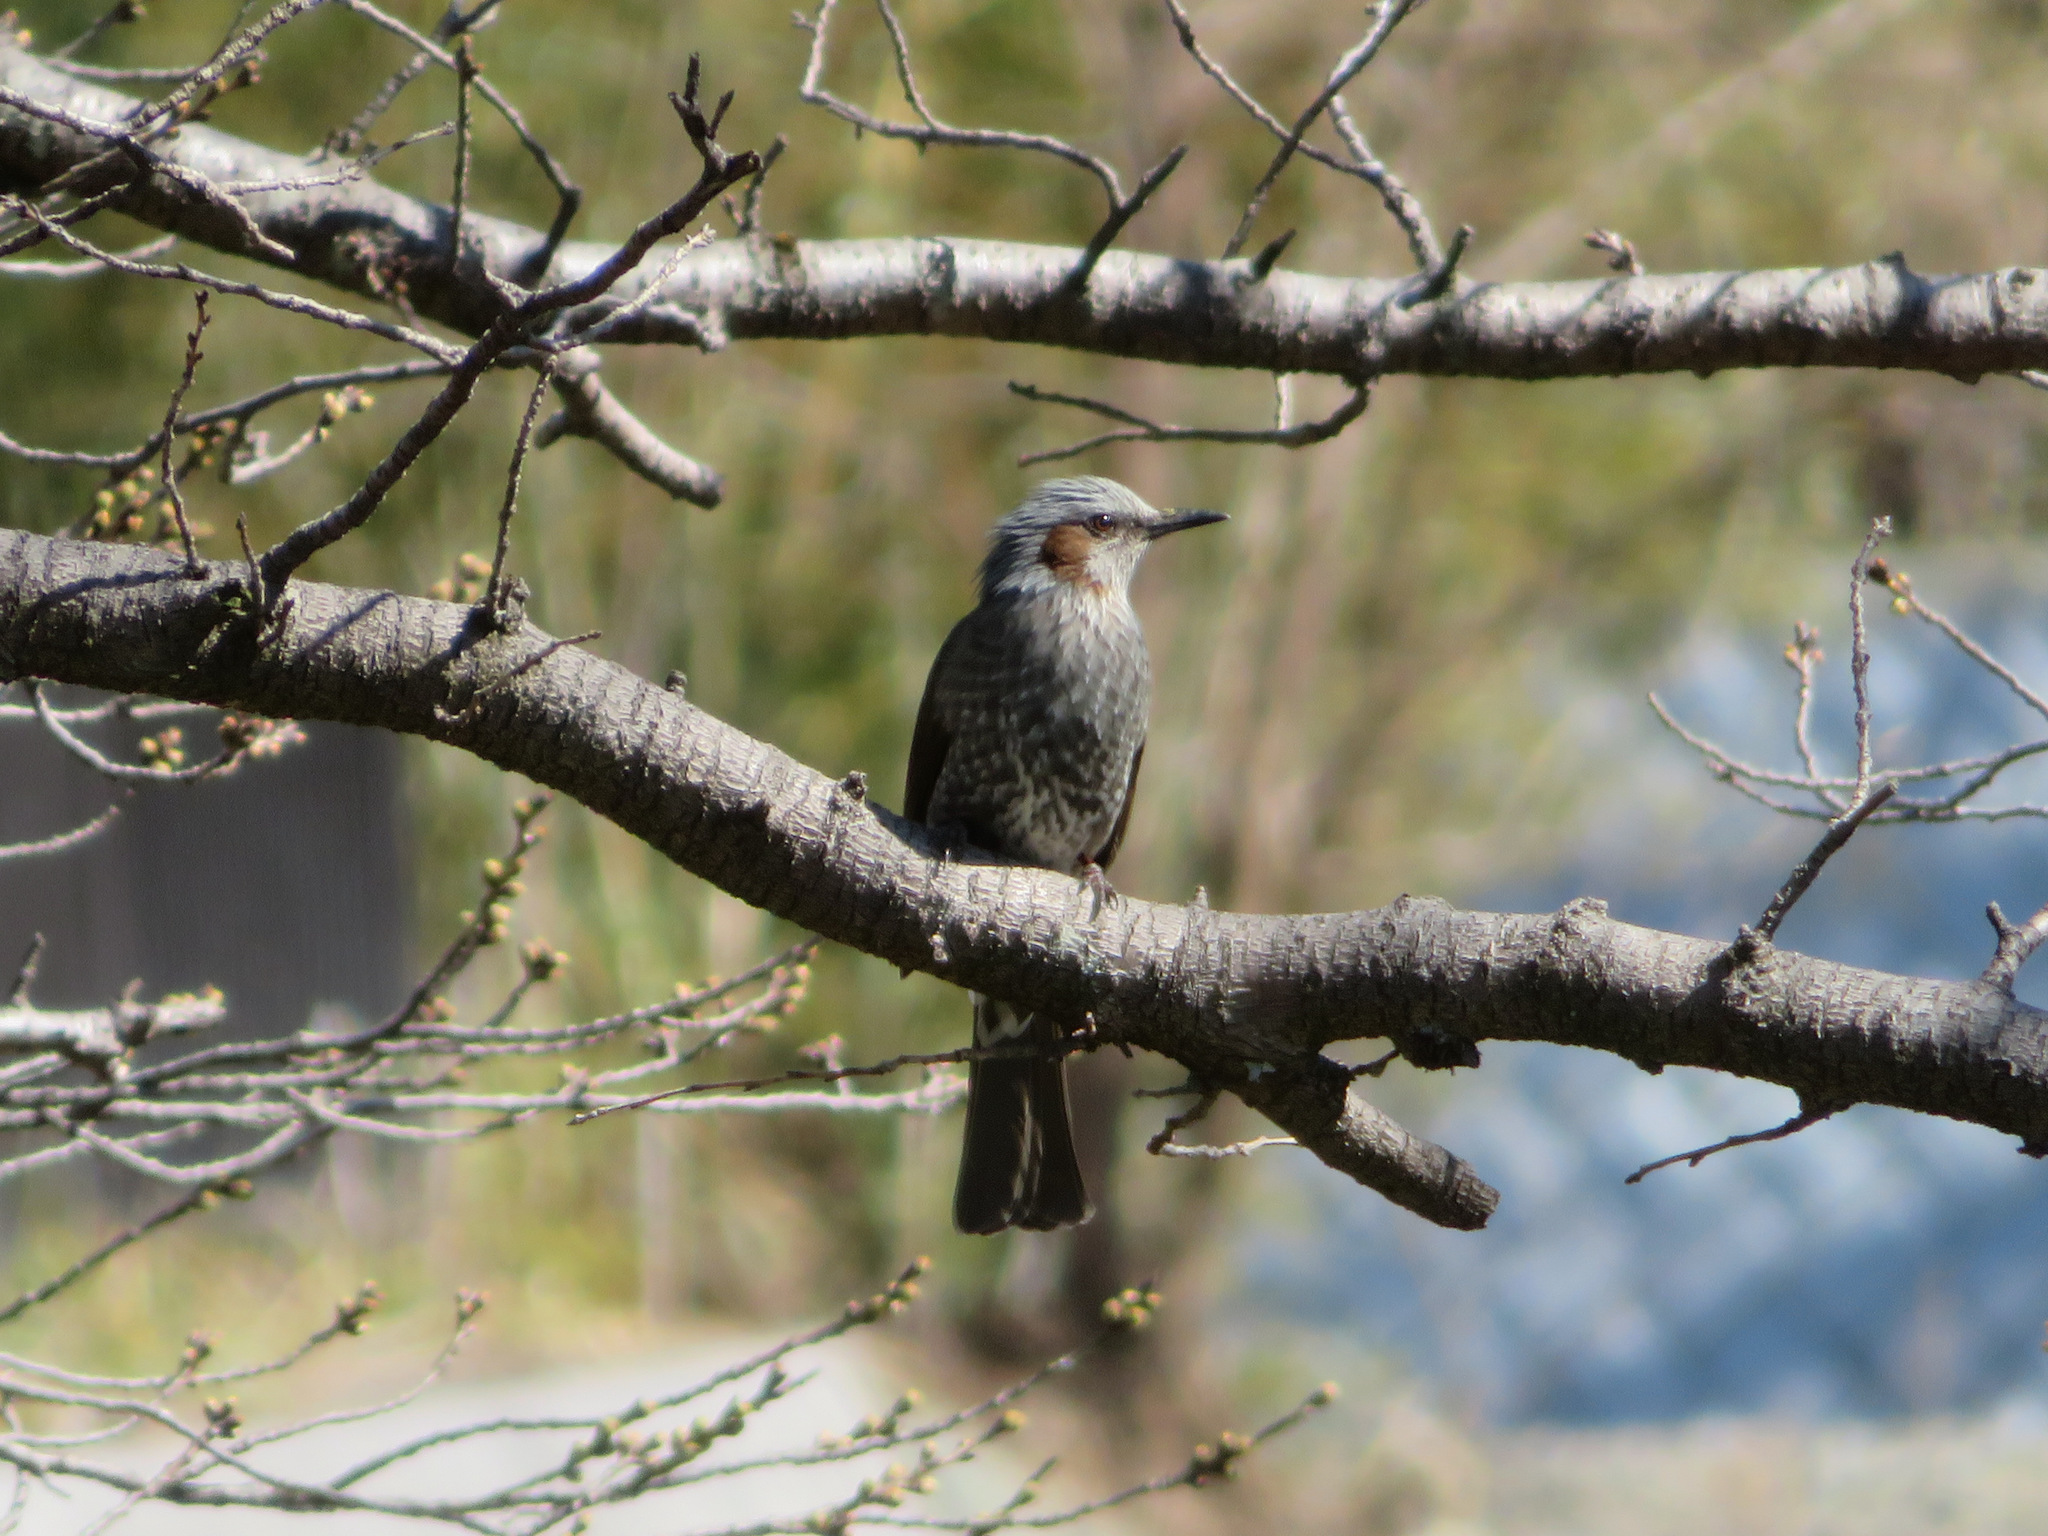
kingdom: Animalia
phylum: Chordata
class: Aves
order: Passeriformes
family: Pycnonotidae
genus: Hypsipetes
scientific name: Hypsipetes amaurotis
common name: Brown-eared bulbul
